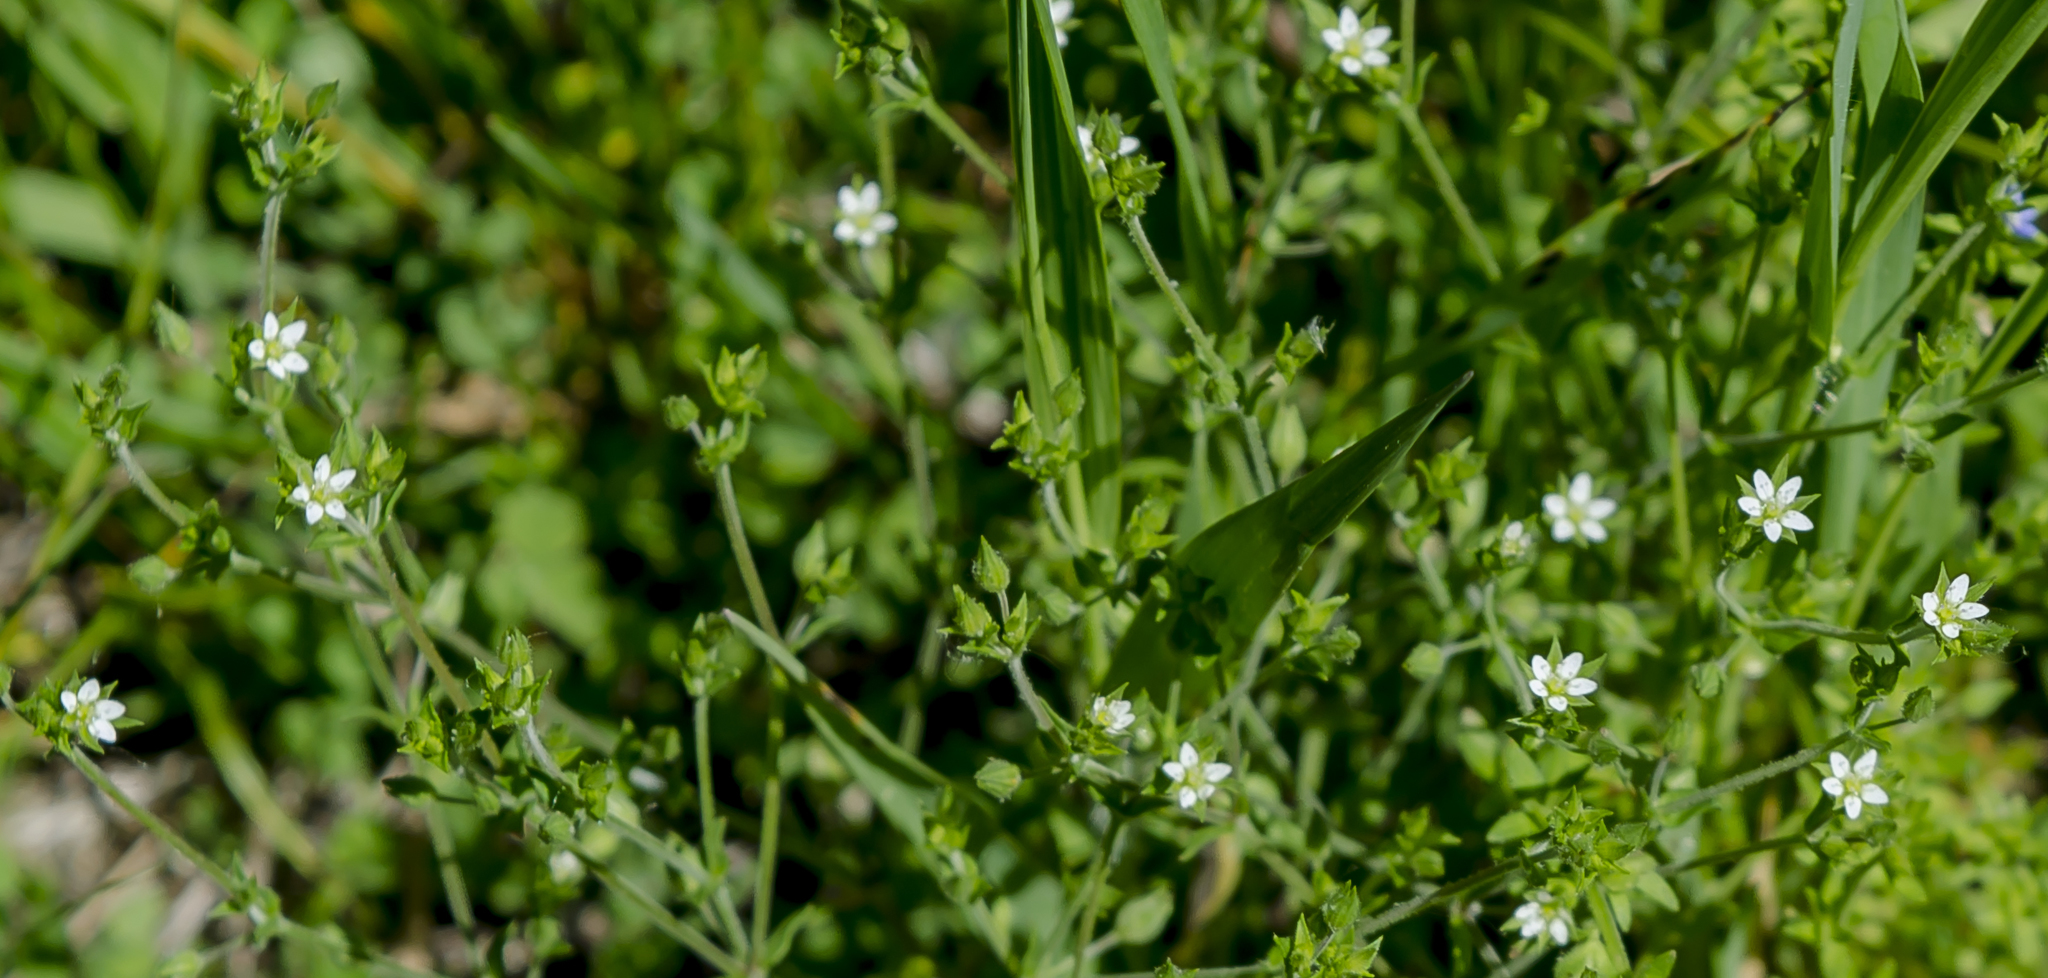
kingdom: Plantae
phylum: Tracheophyta
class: Magnoliopsida
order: Caryophyllales
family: Caryophyllaceae
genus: Arenaria
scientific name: Arenaria serpyllifolia
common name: Thyme-leaved sandwort
